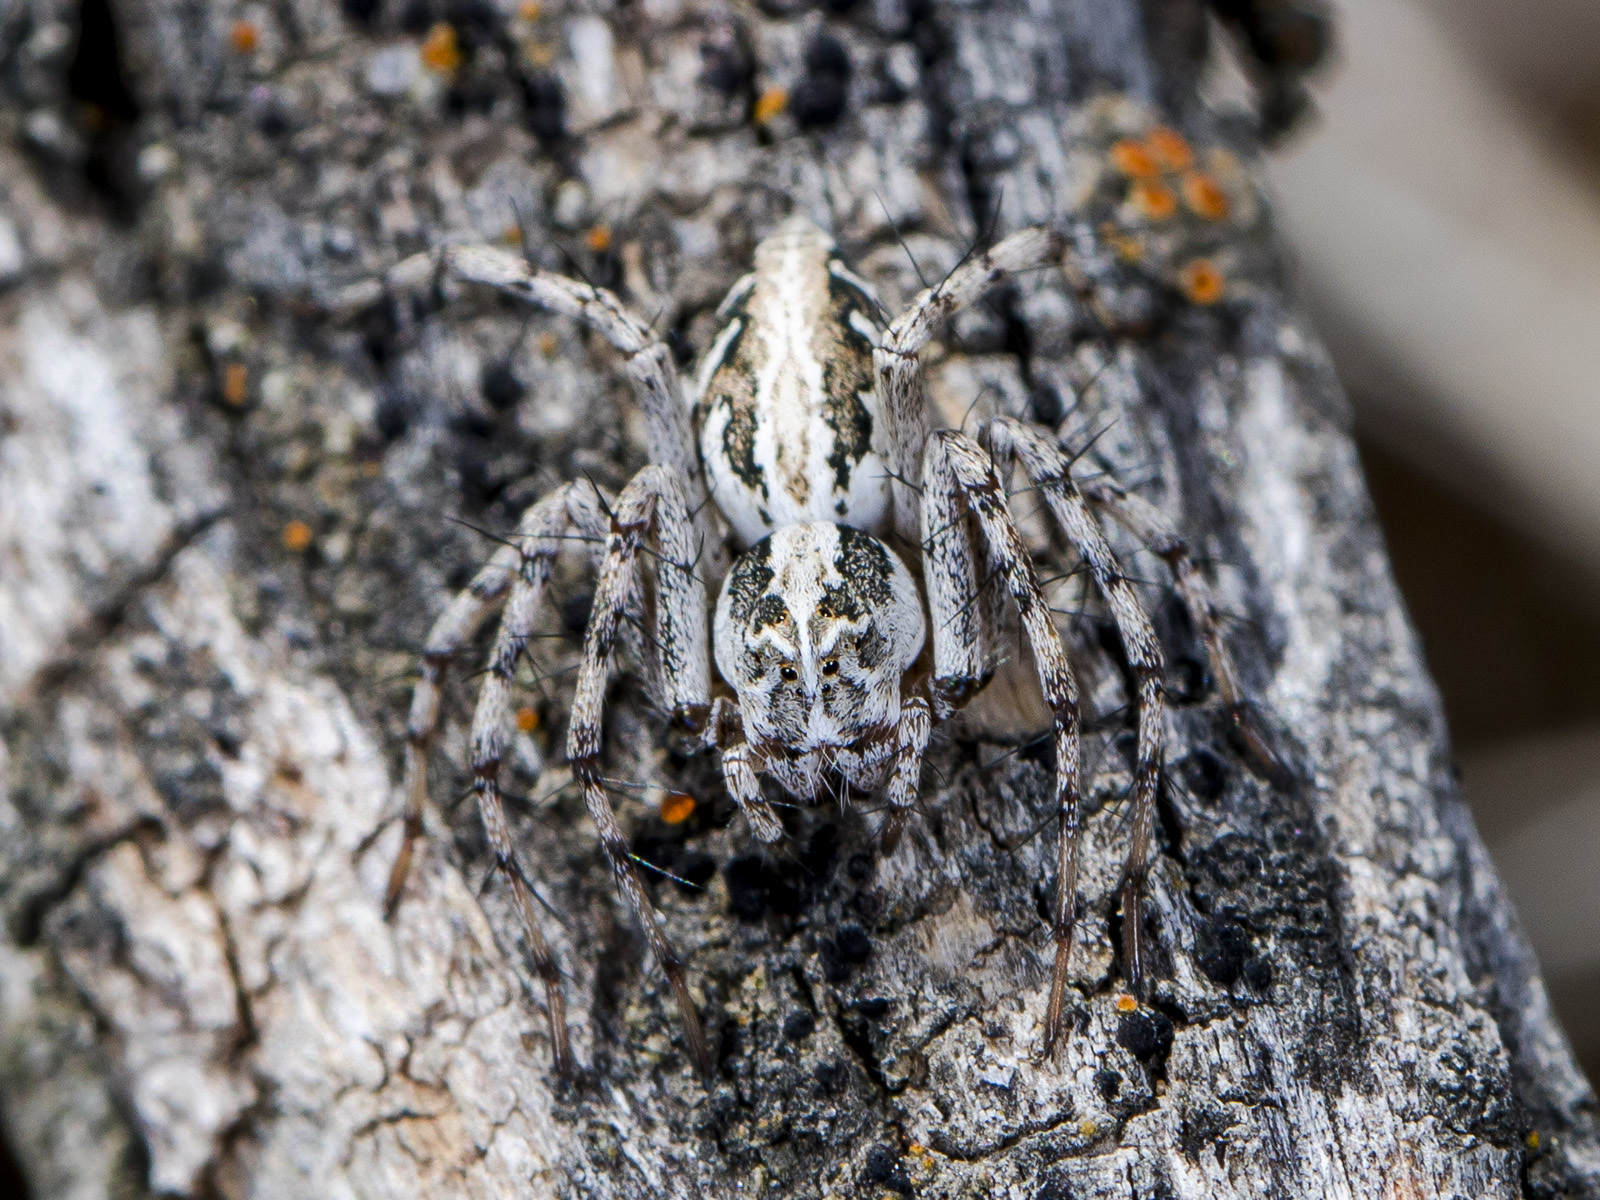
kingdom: Animalia
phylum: Arthropoda
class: Arachnida
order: Araneae
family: Oxyopidae
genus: Oxyopes
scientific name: Oxyopes globifer
